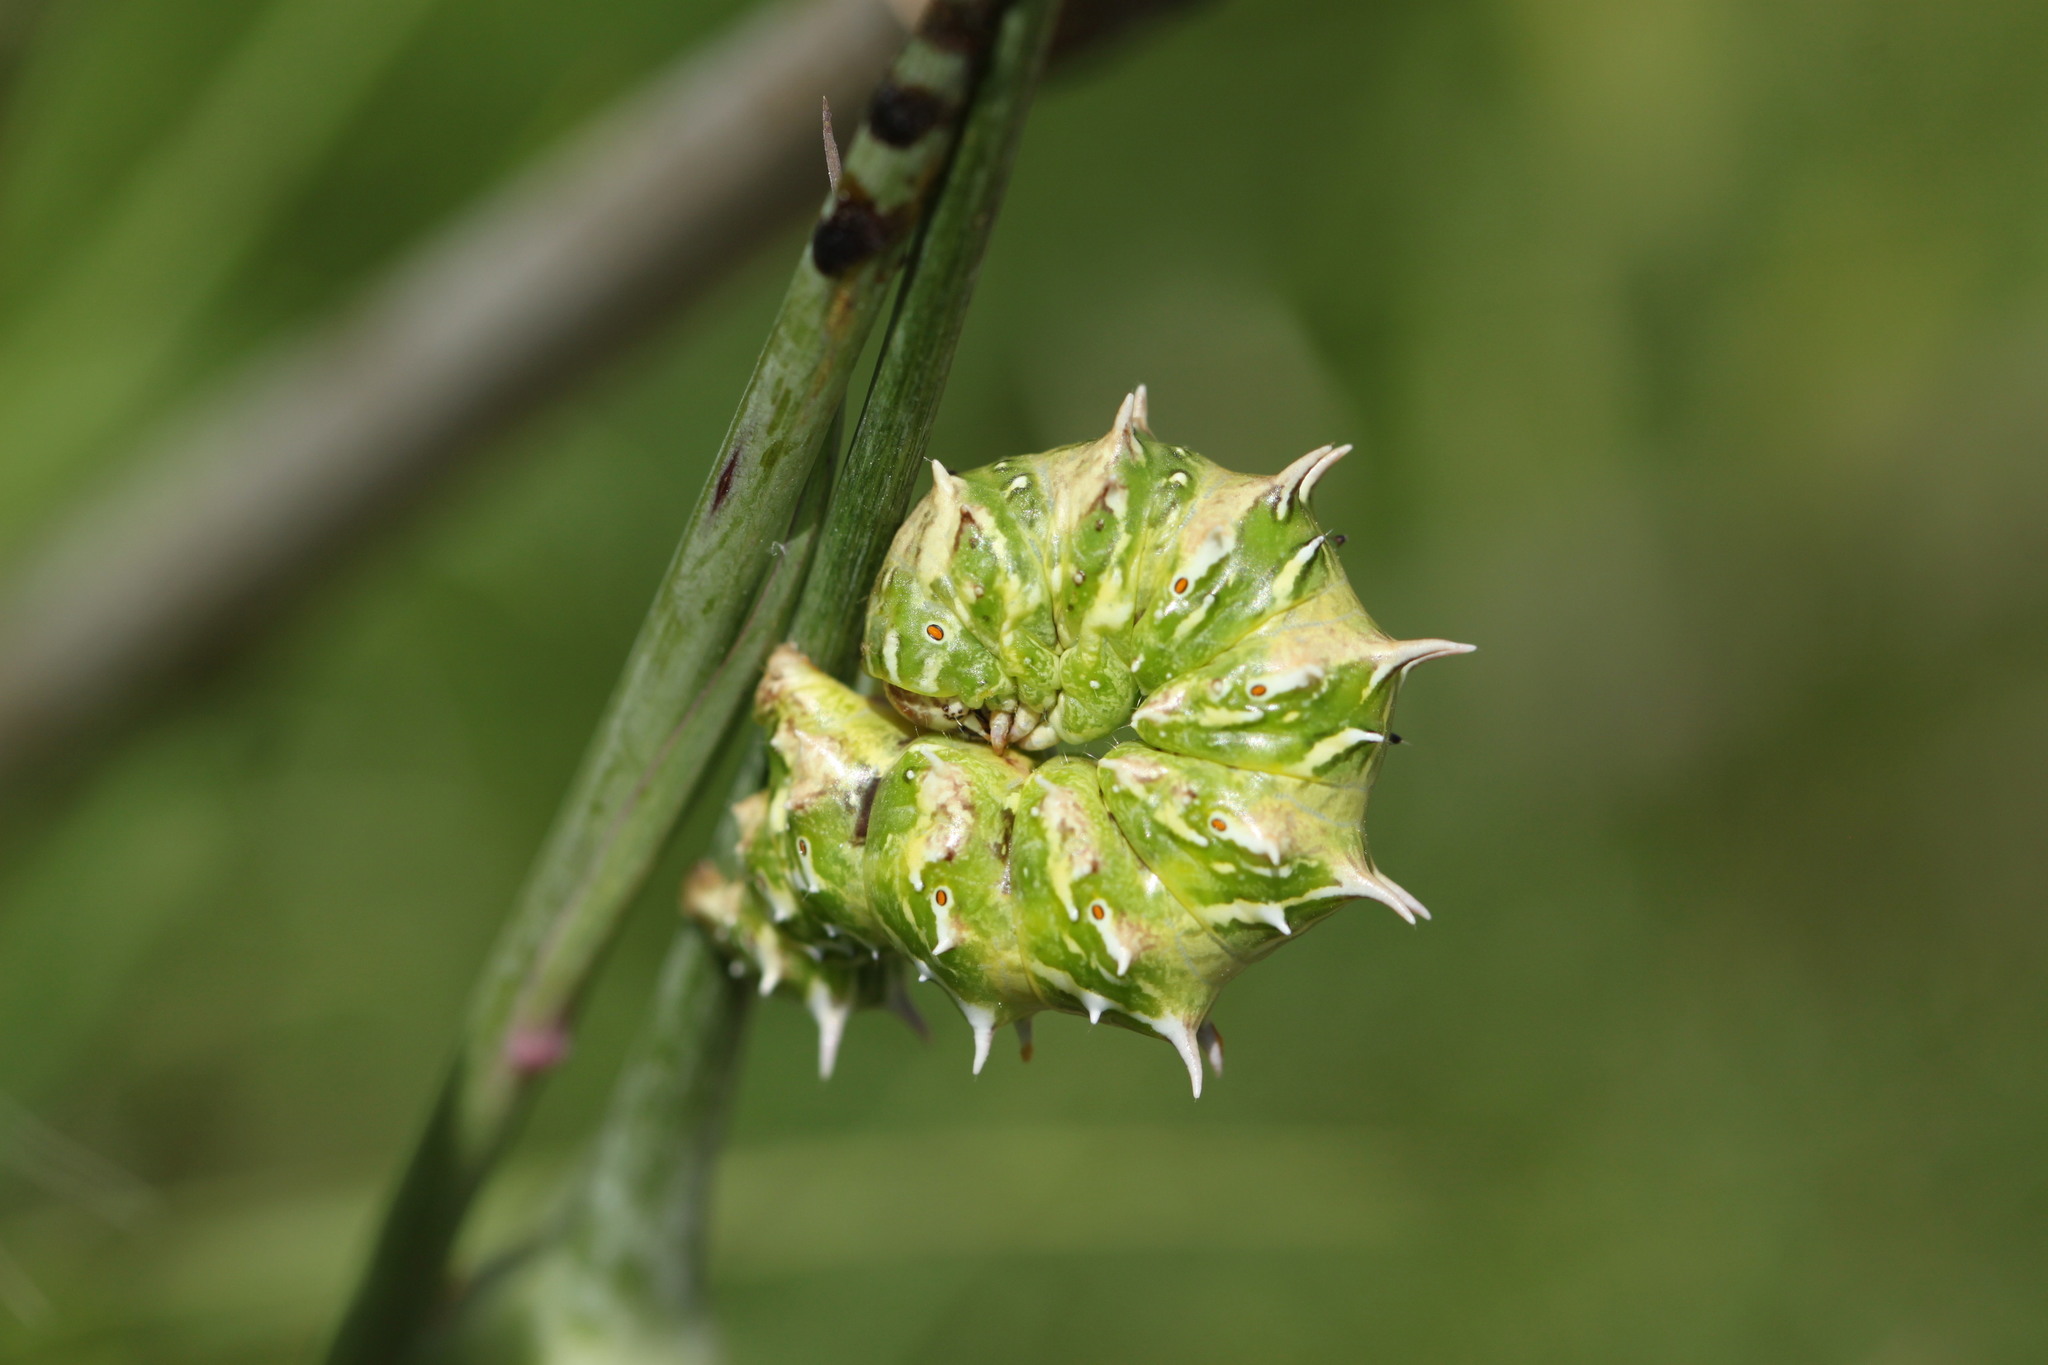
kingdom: Animalia
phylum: Arthropoda
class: Insecta
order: Lepidoptera
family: Geometridae
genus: Apochima
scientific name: Apochima flabellaria
